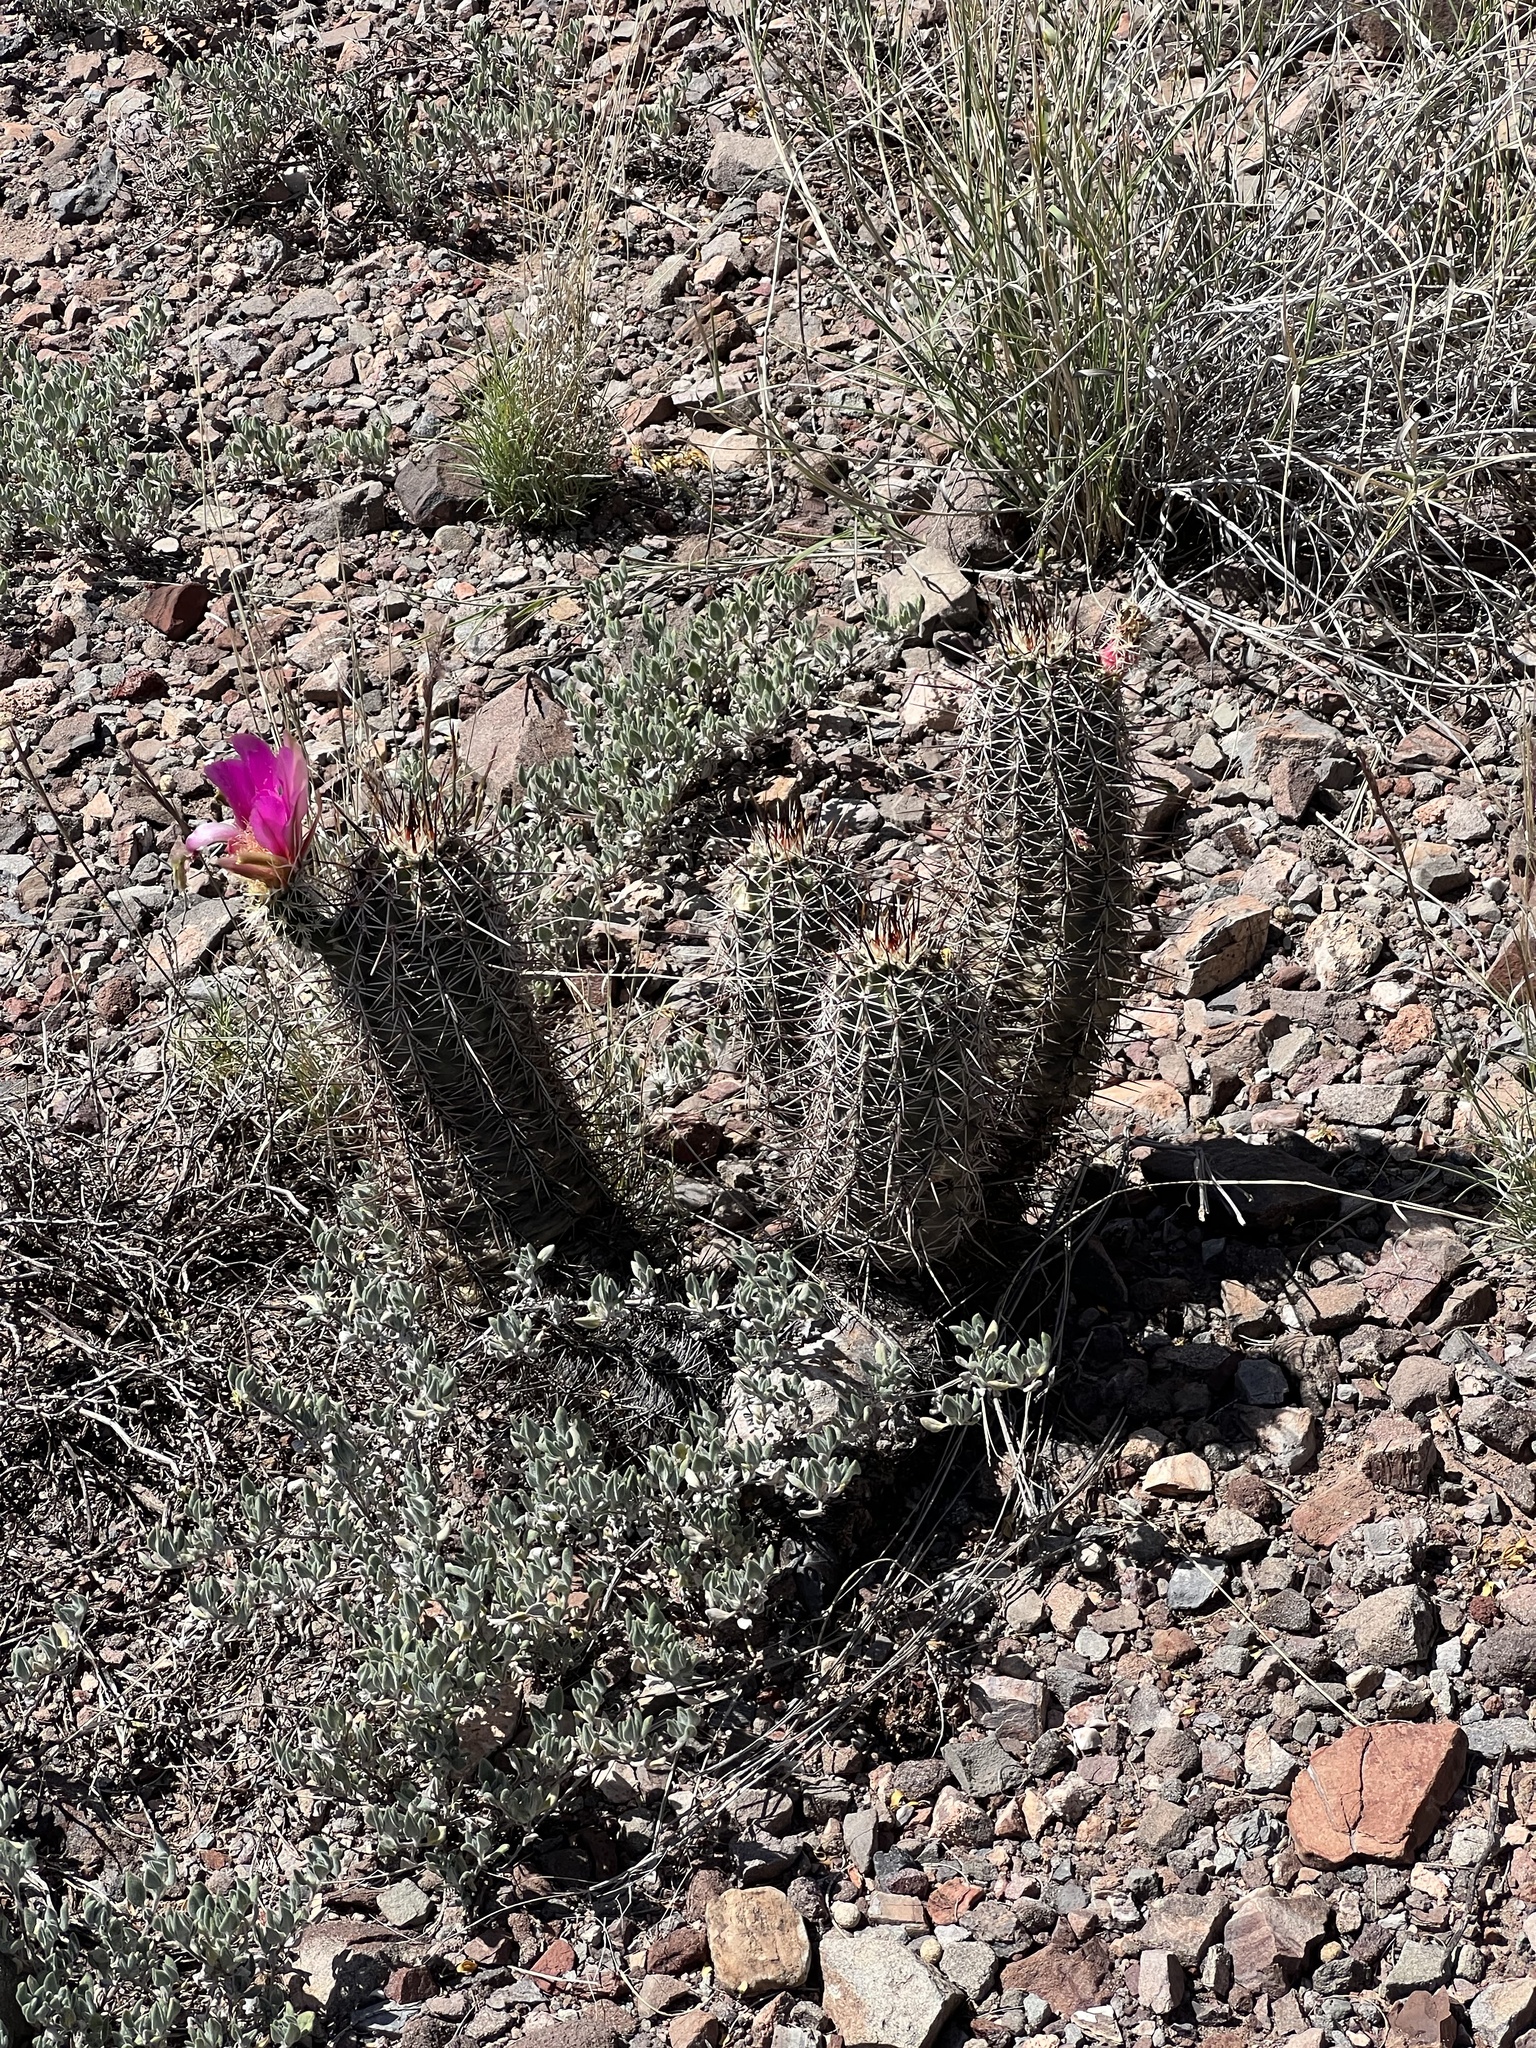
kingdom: Plantae
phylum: Tracheophyta
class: Magnoliopsida
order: Caryophyllales
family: Cactaceae
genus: Echinocereus
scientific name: Echinocereus fasciculatus
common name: Bundle hedgehog
